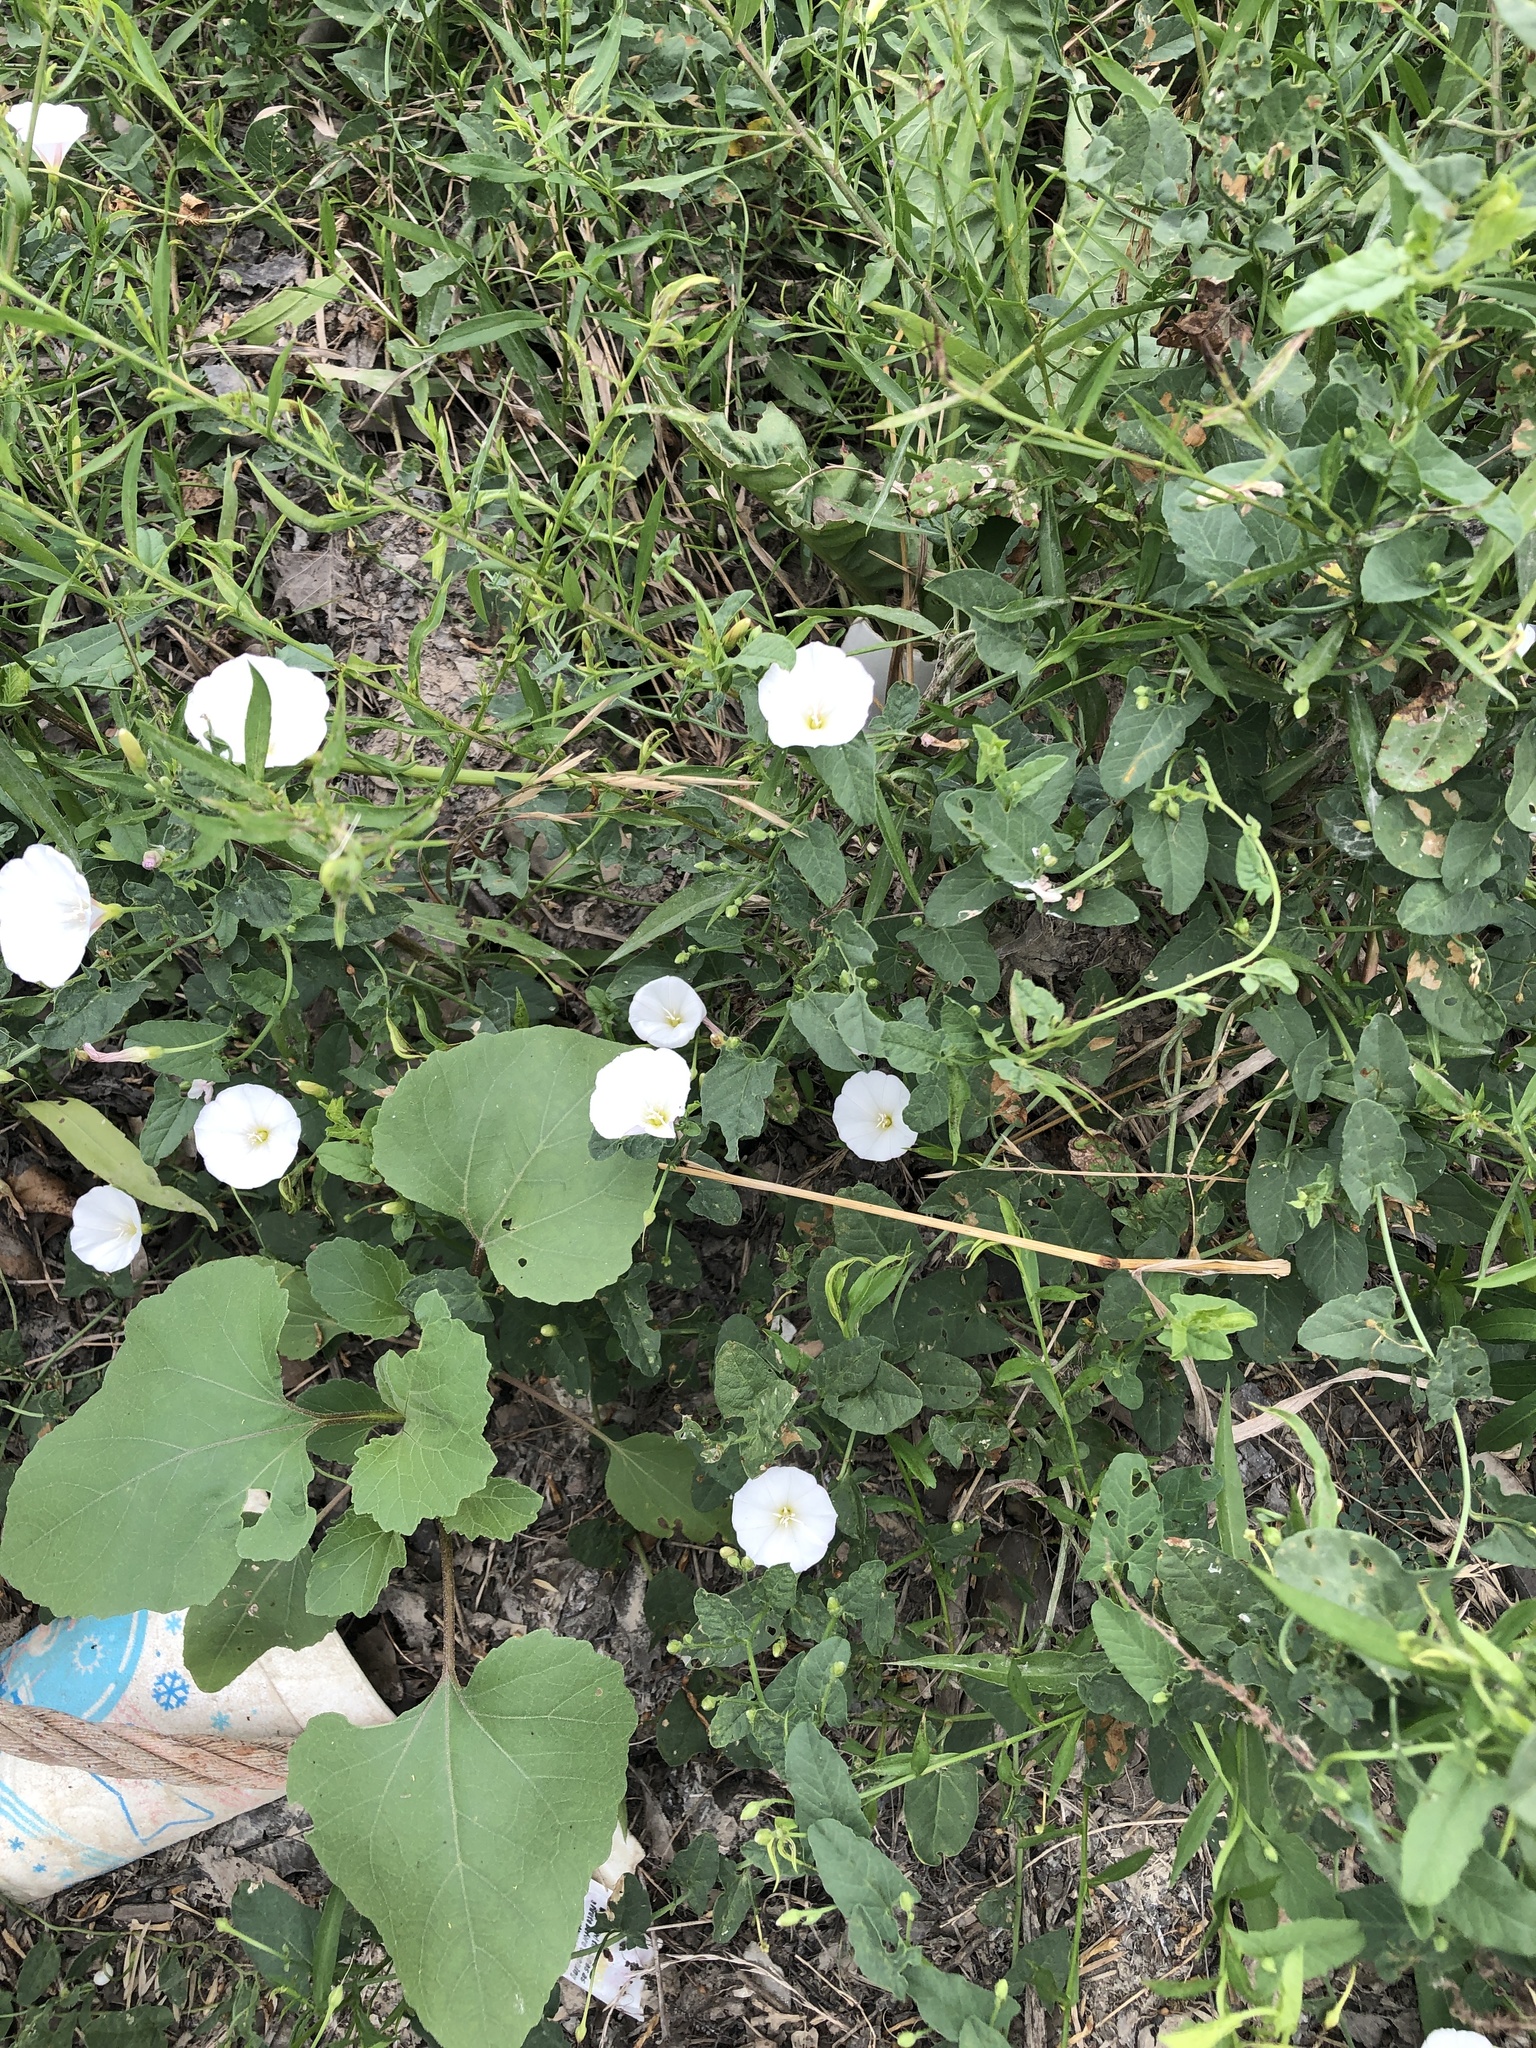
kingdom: Plantae
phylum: Tracheophyta
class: Magnoliopsida
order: Solanales
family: Convolvulaceae
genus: Convolvulus
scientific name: Convolvulus arvensis
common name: Field bindweed
